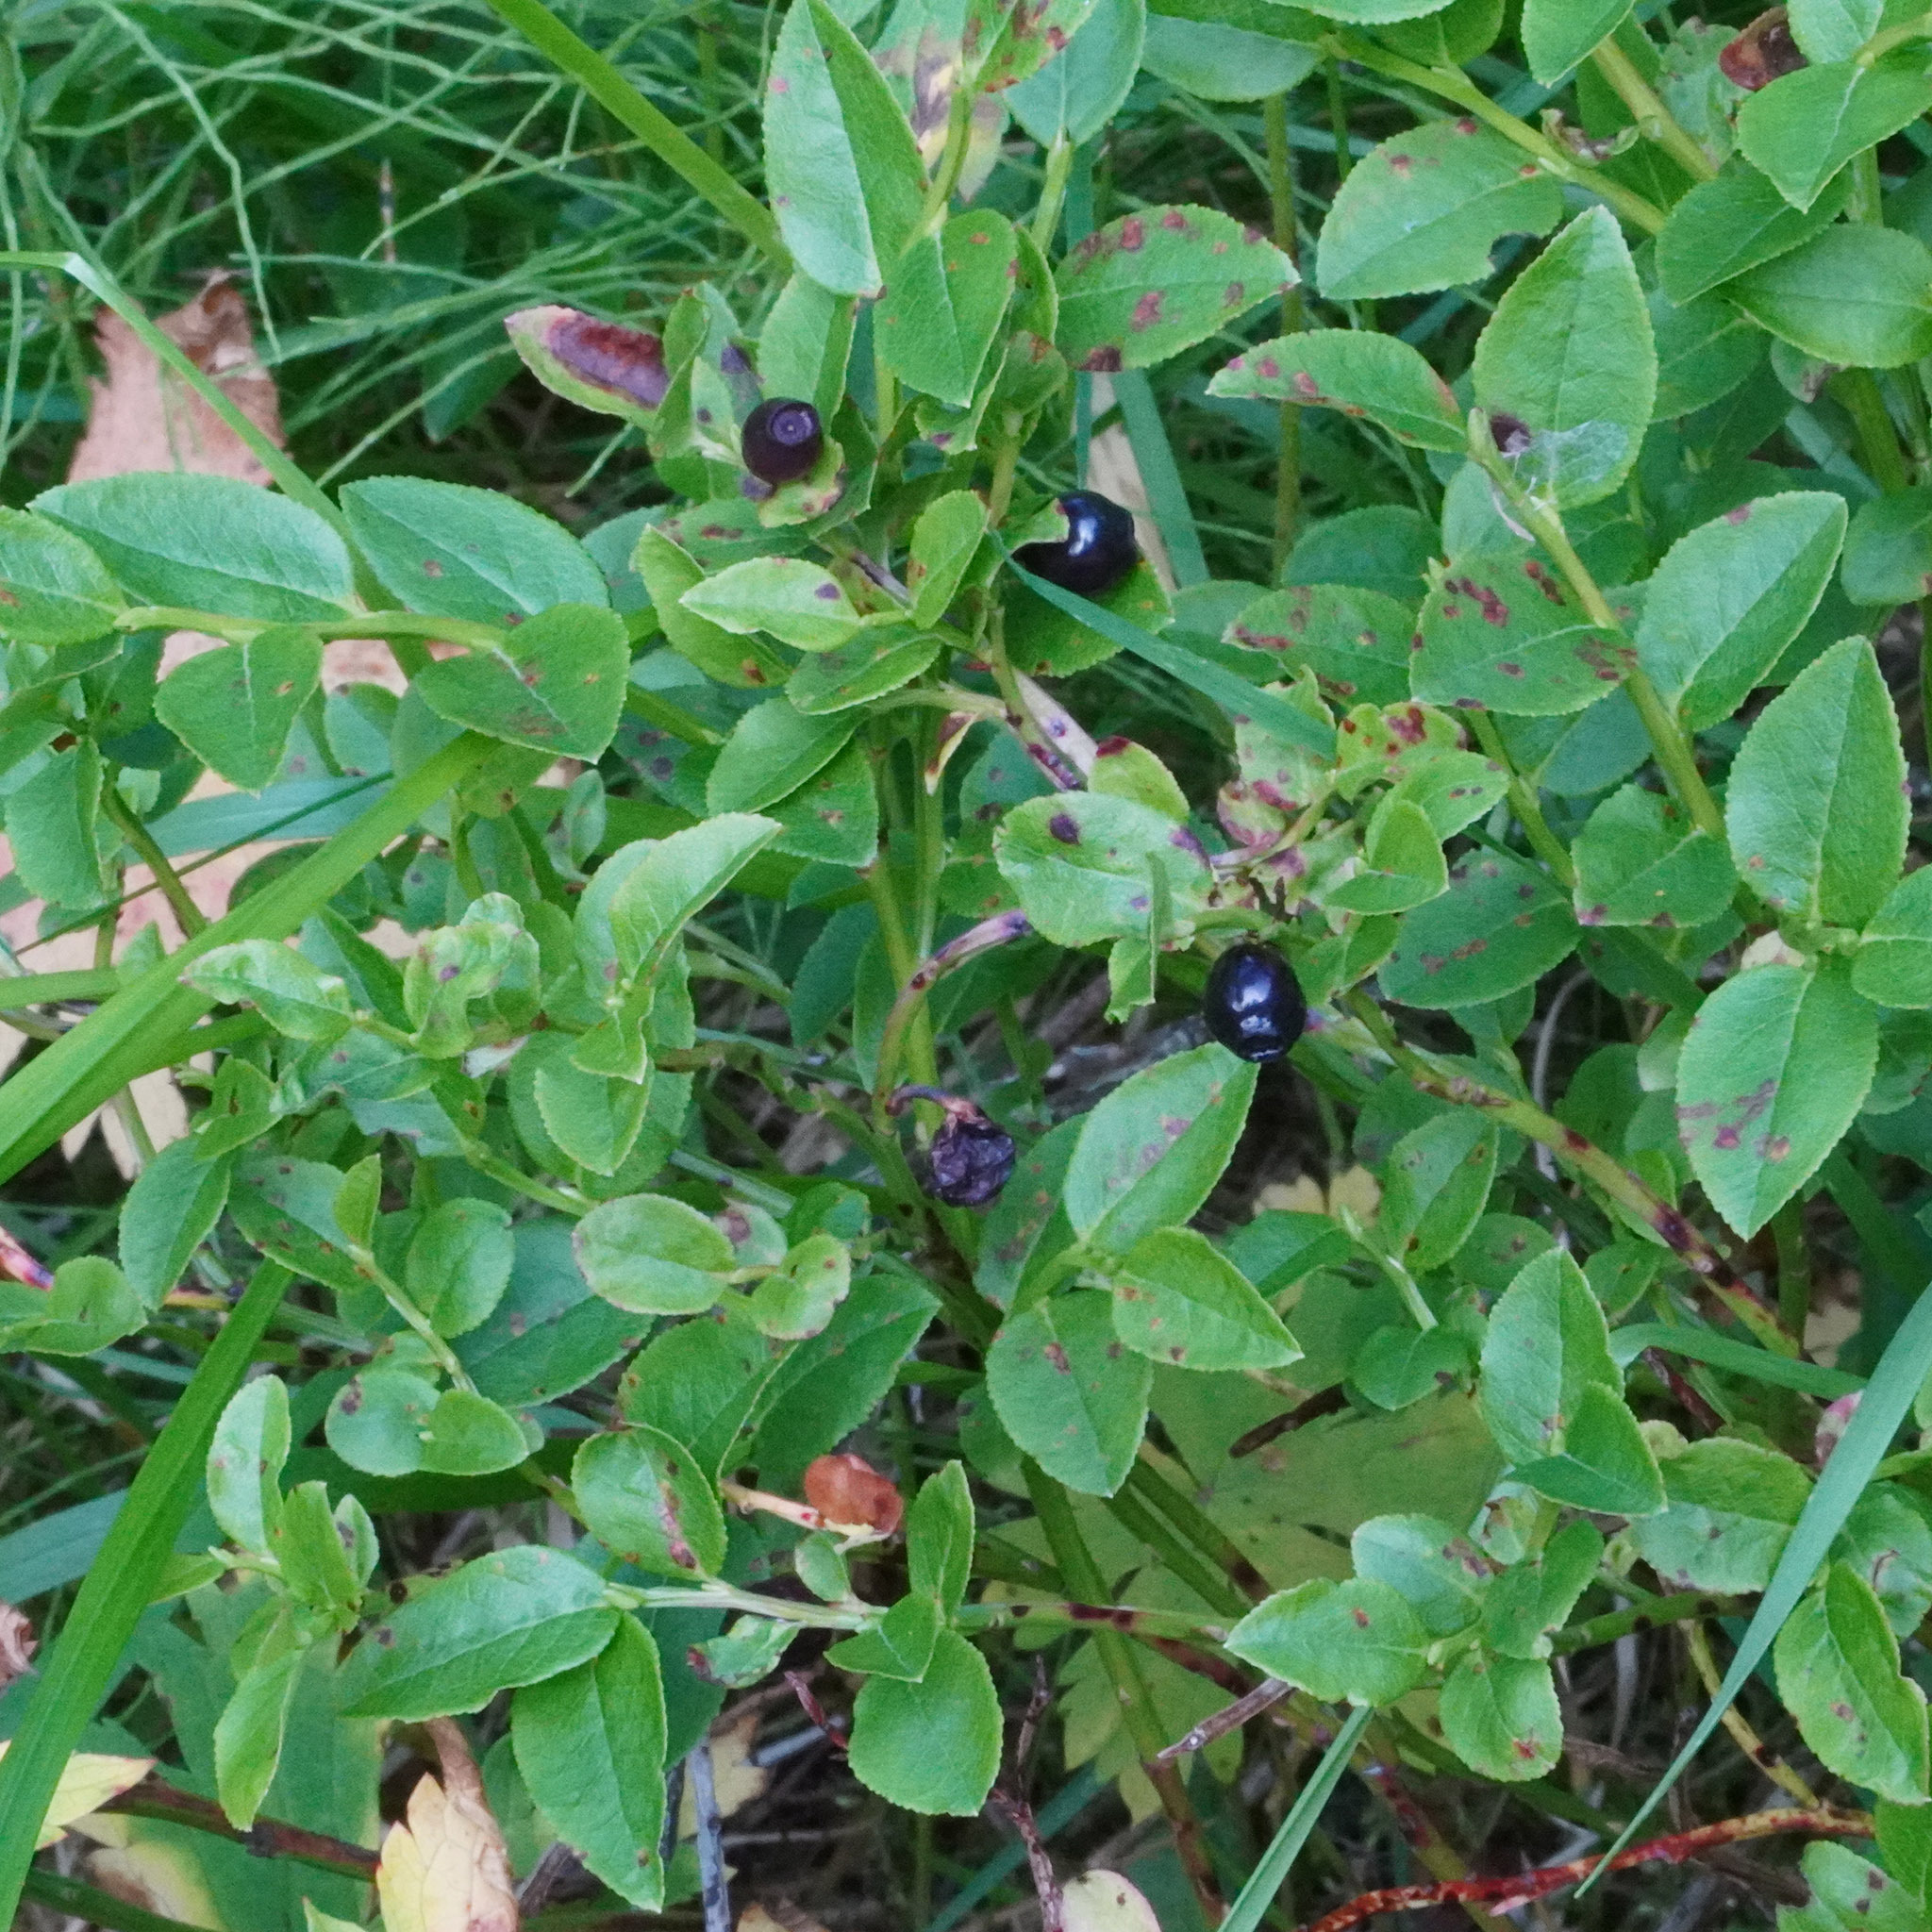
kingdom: Plantae
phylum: Tracheophyta
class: Magnoliopsida
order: Ericales
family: Ericaceae
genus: Vaccinium
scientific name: Vaccinium myrtillus
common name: Bilberry
